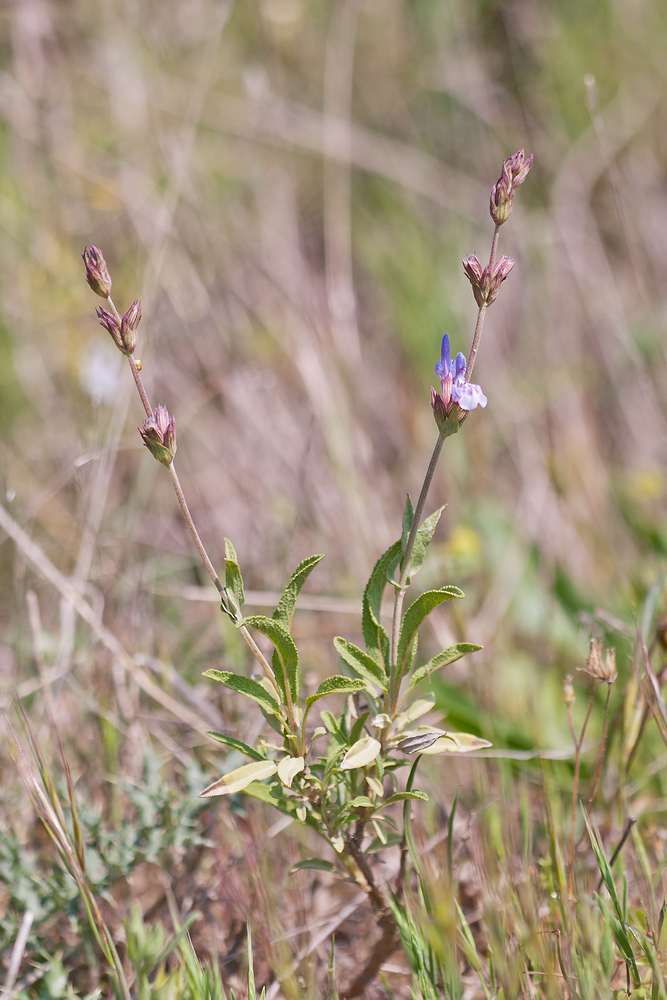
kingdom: Plantae
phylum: Tracheophyta
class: Magnoliopsida
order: Lamiales
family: Lamiaceae
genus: Salvia
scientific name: Salvia officinalis
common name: Sage
